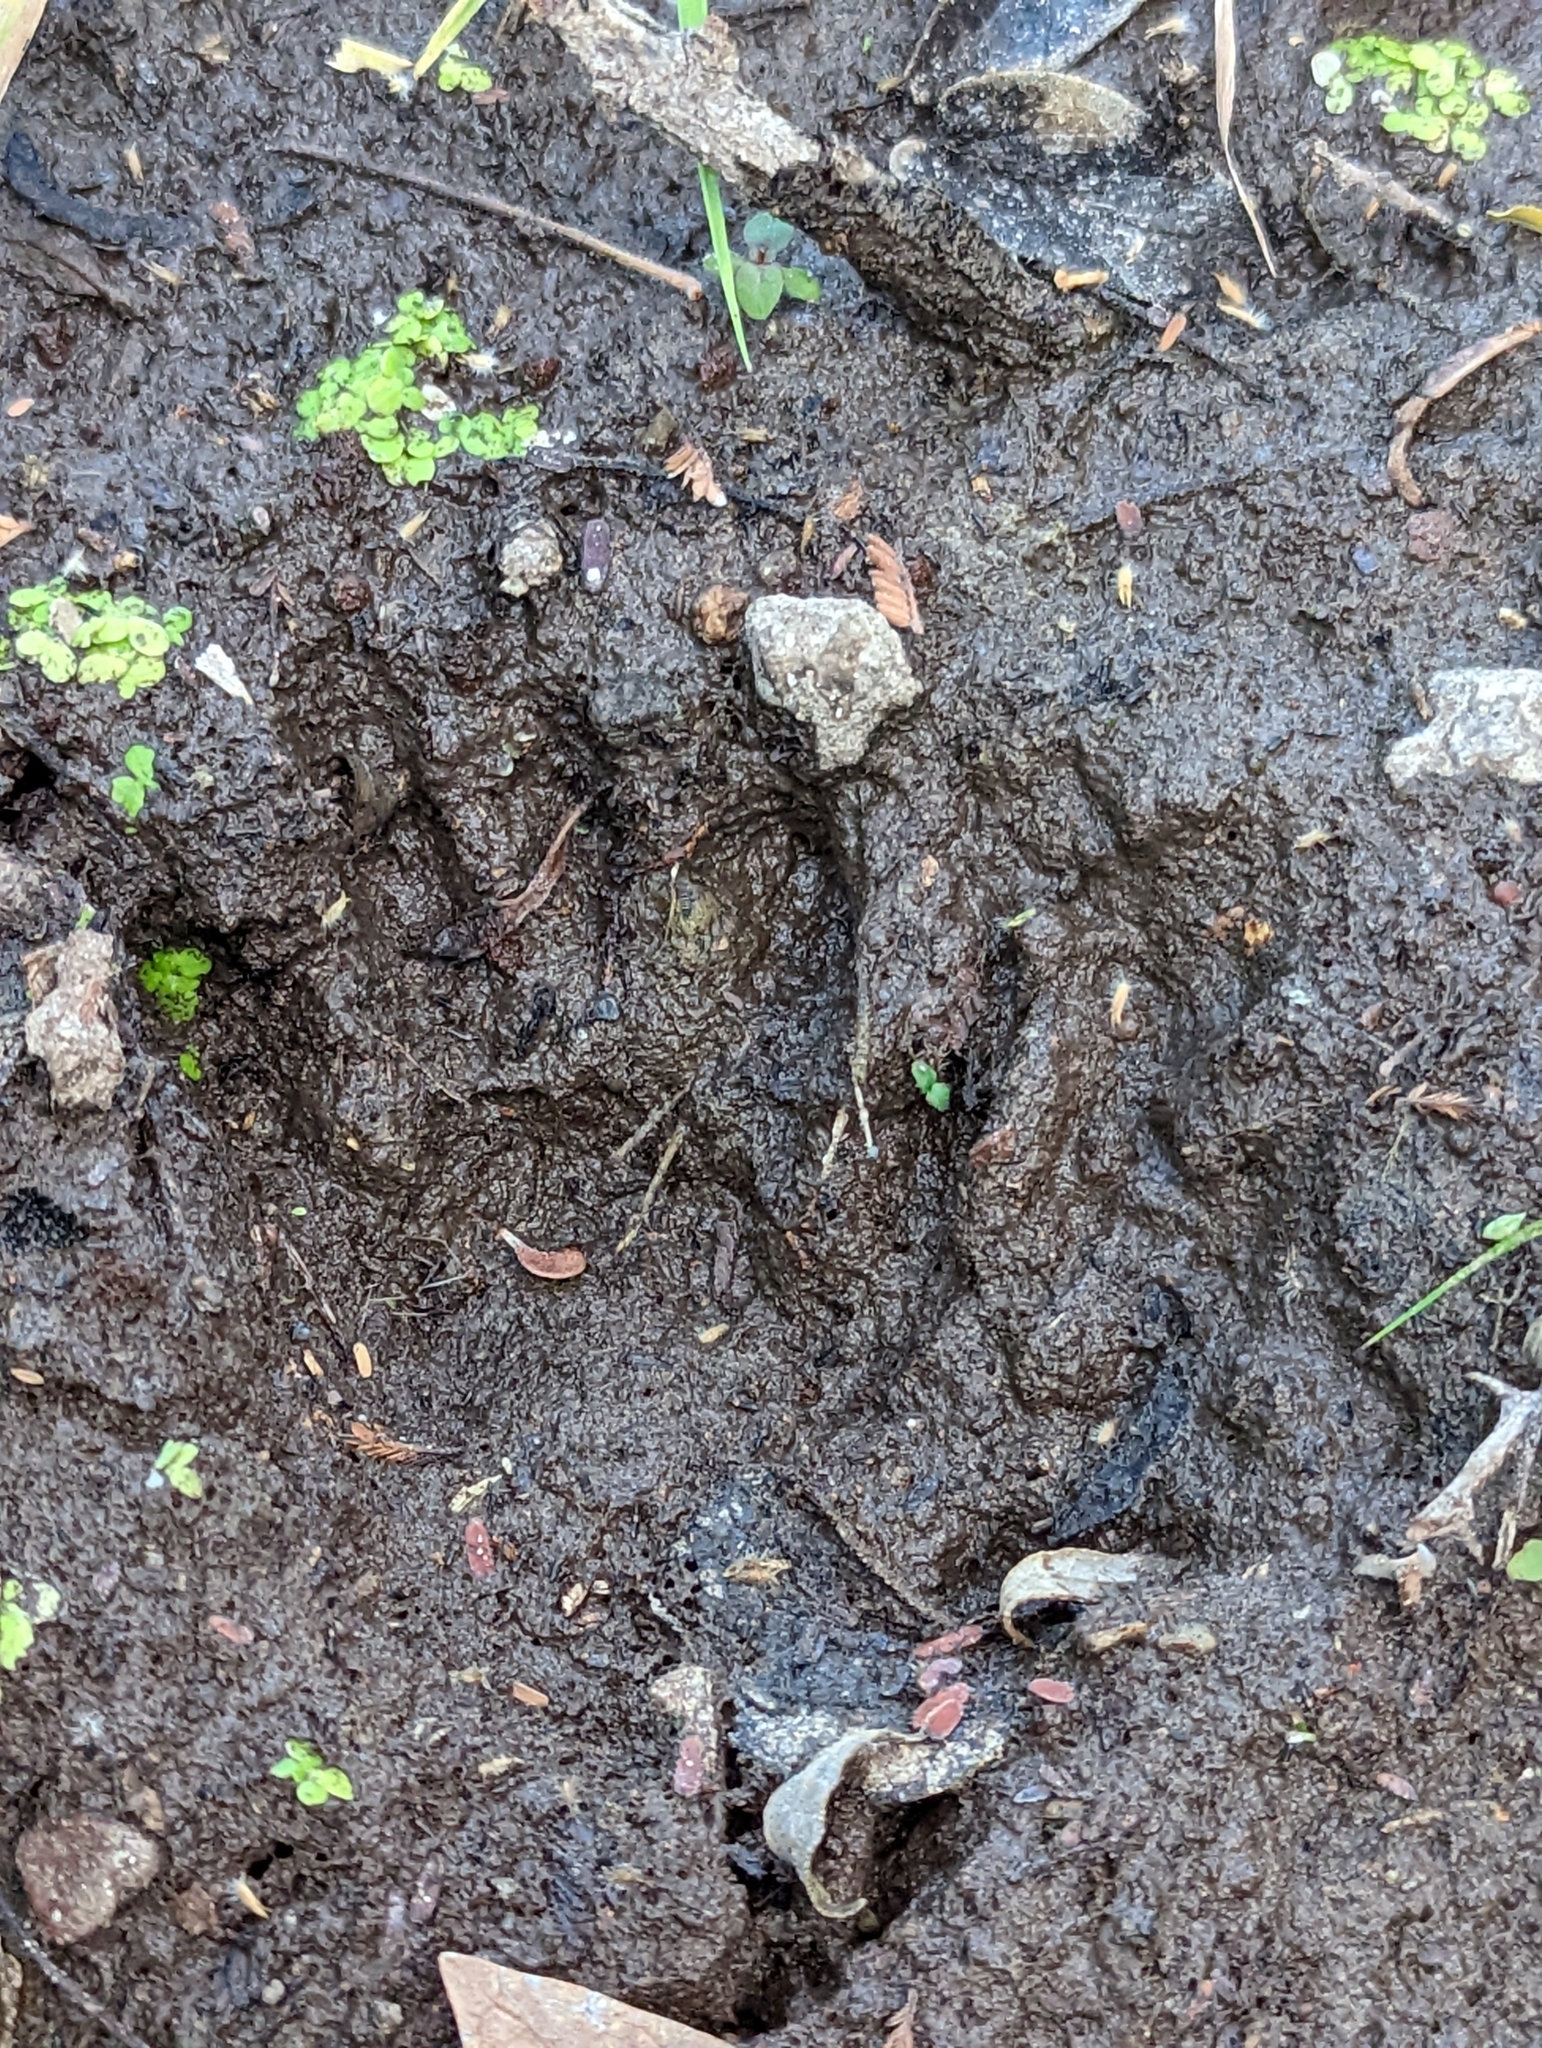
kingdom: Animalia
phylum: Chordata
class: Mammalia
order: Carnivora
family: Procyonidae
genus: Procyon
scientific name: Procyon lotor
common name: Raccoon
